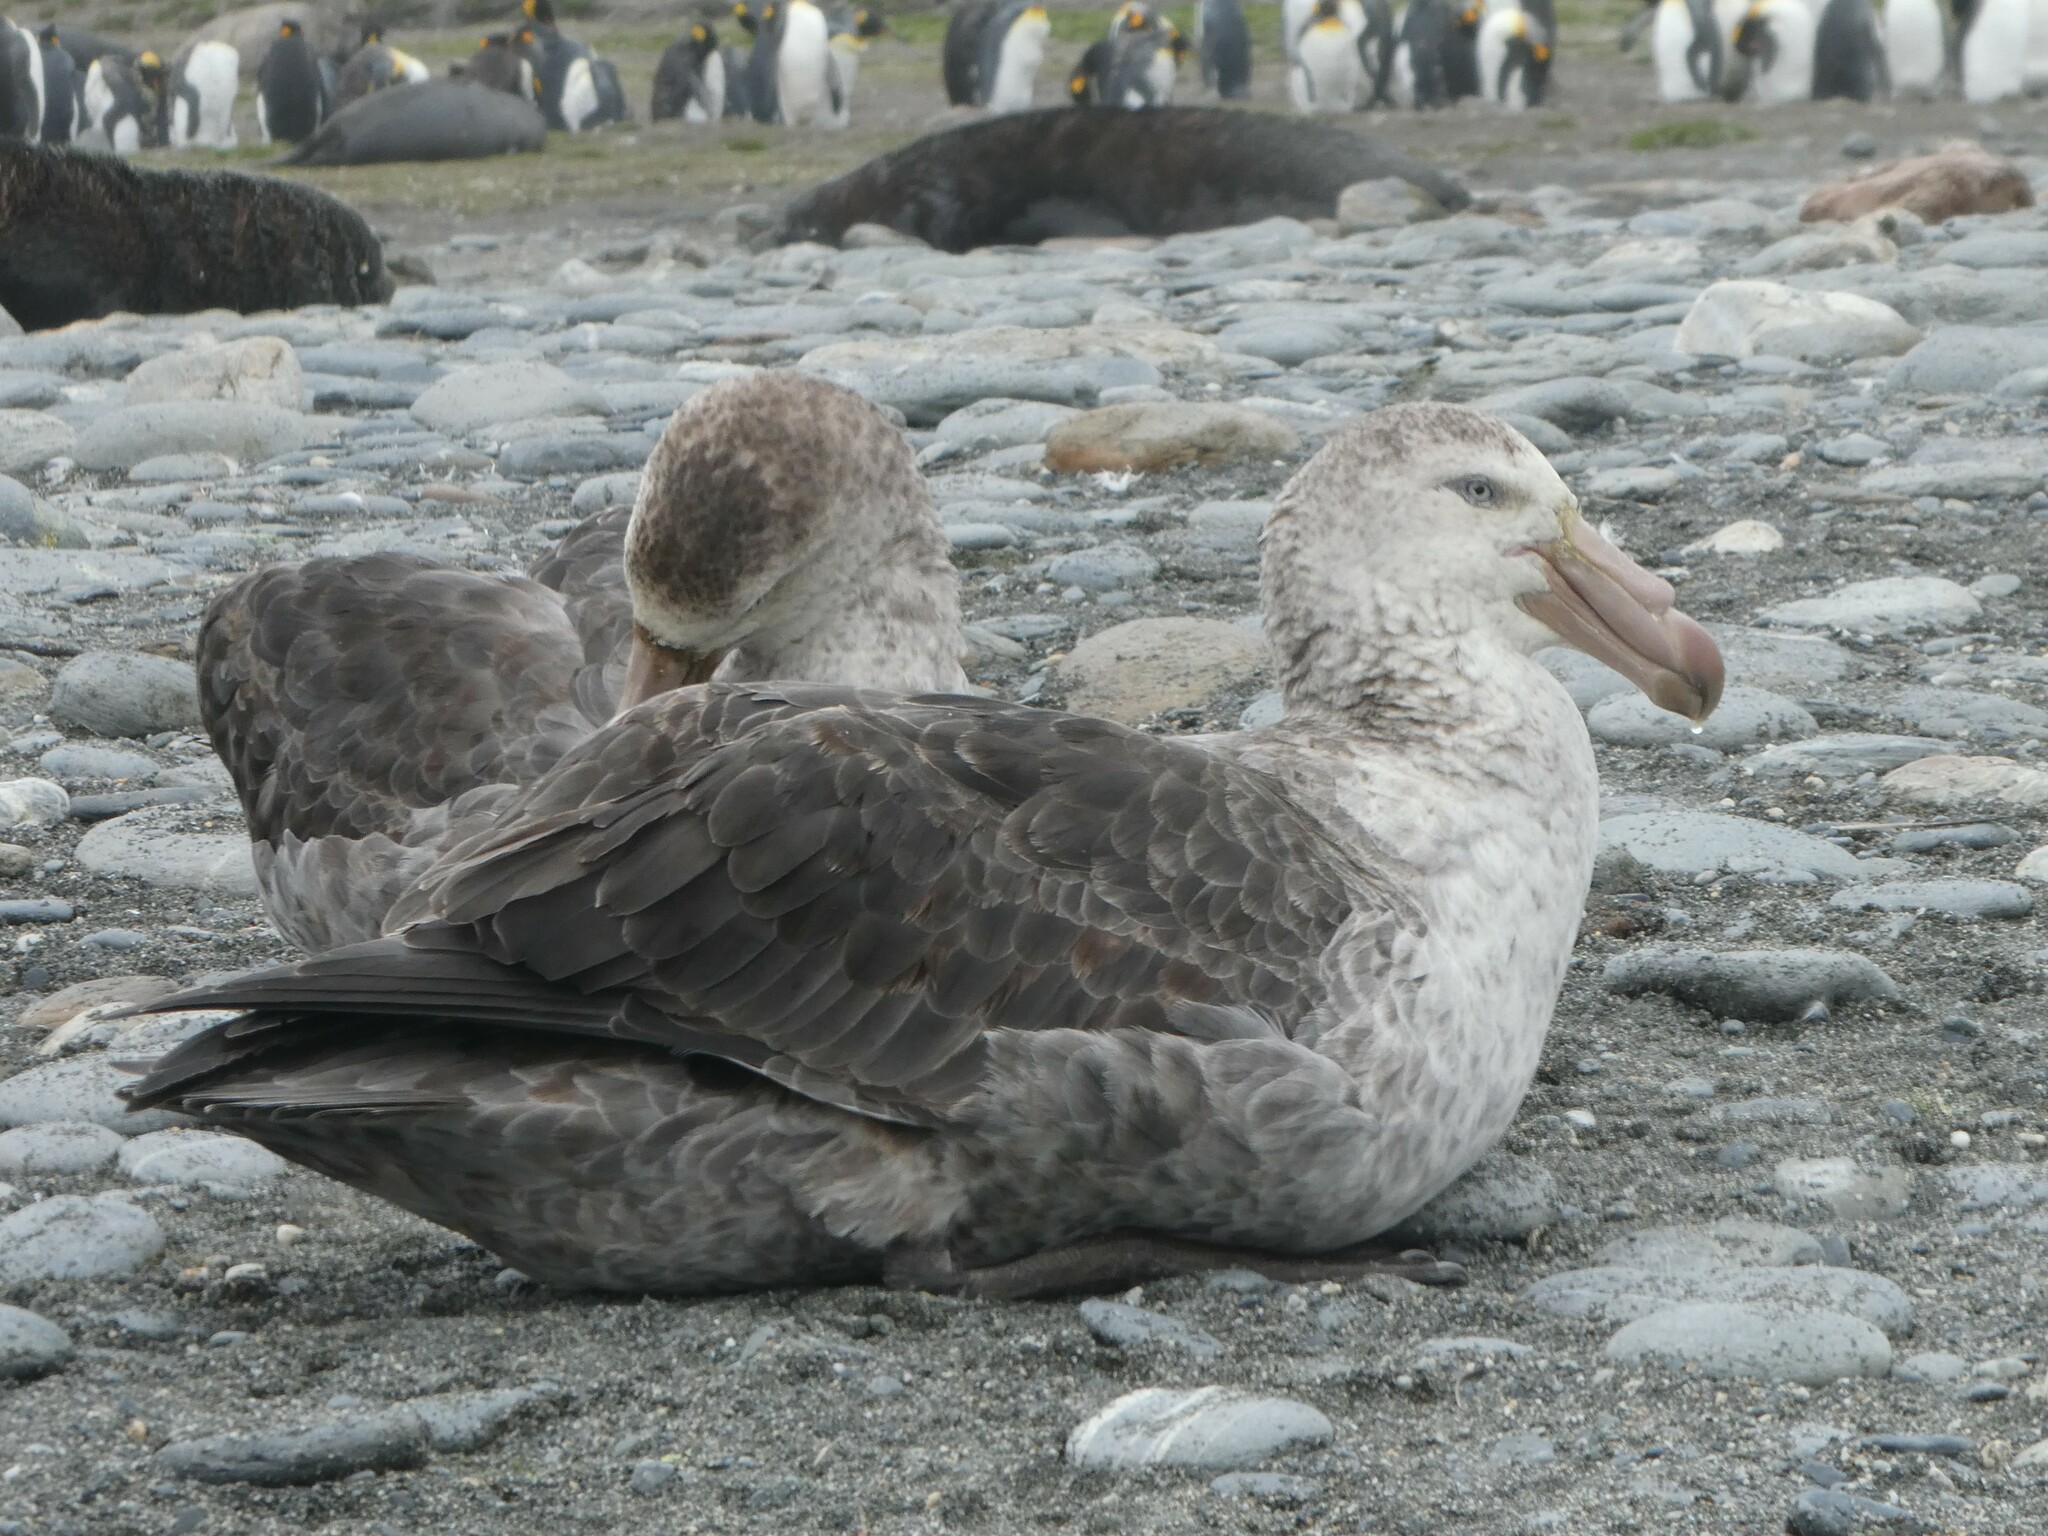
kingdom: Animalia
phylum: Chordata
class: Aves
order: Procellariiformes
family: Procellariidae
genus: Macronectes
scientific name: Macronectes halli
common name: Northern giant petrel
